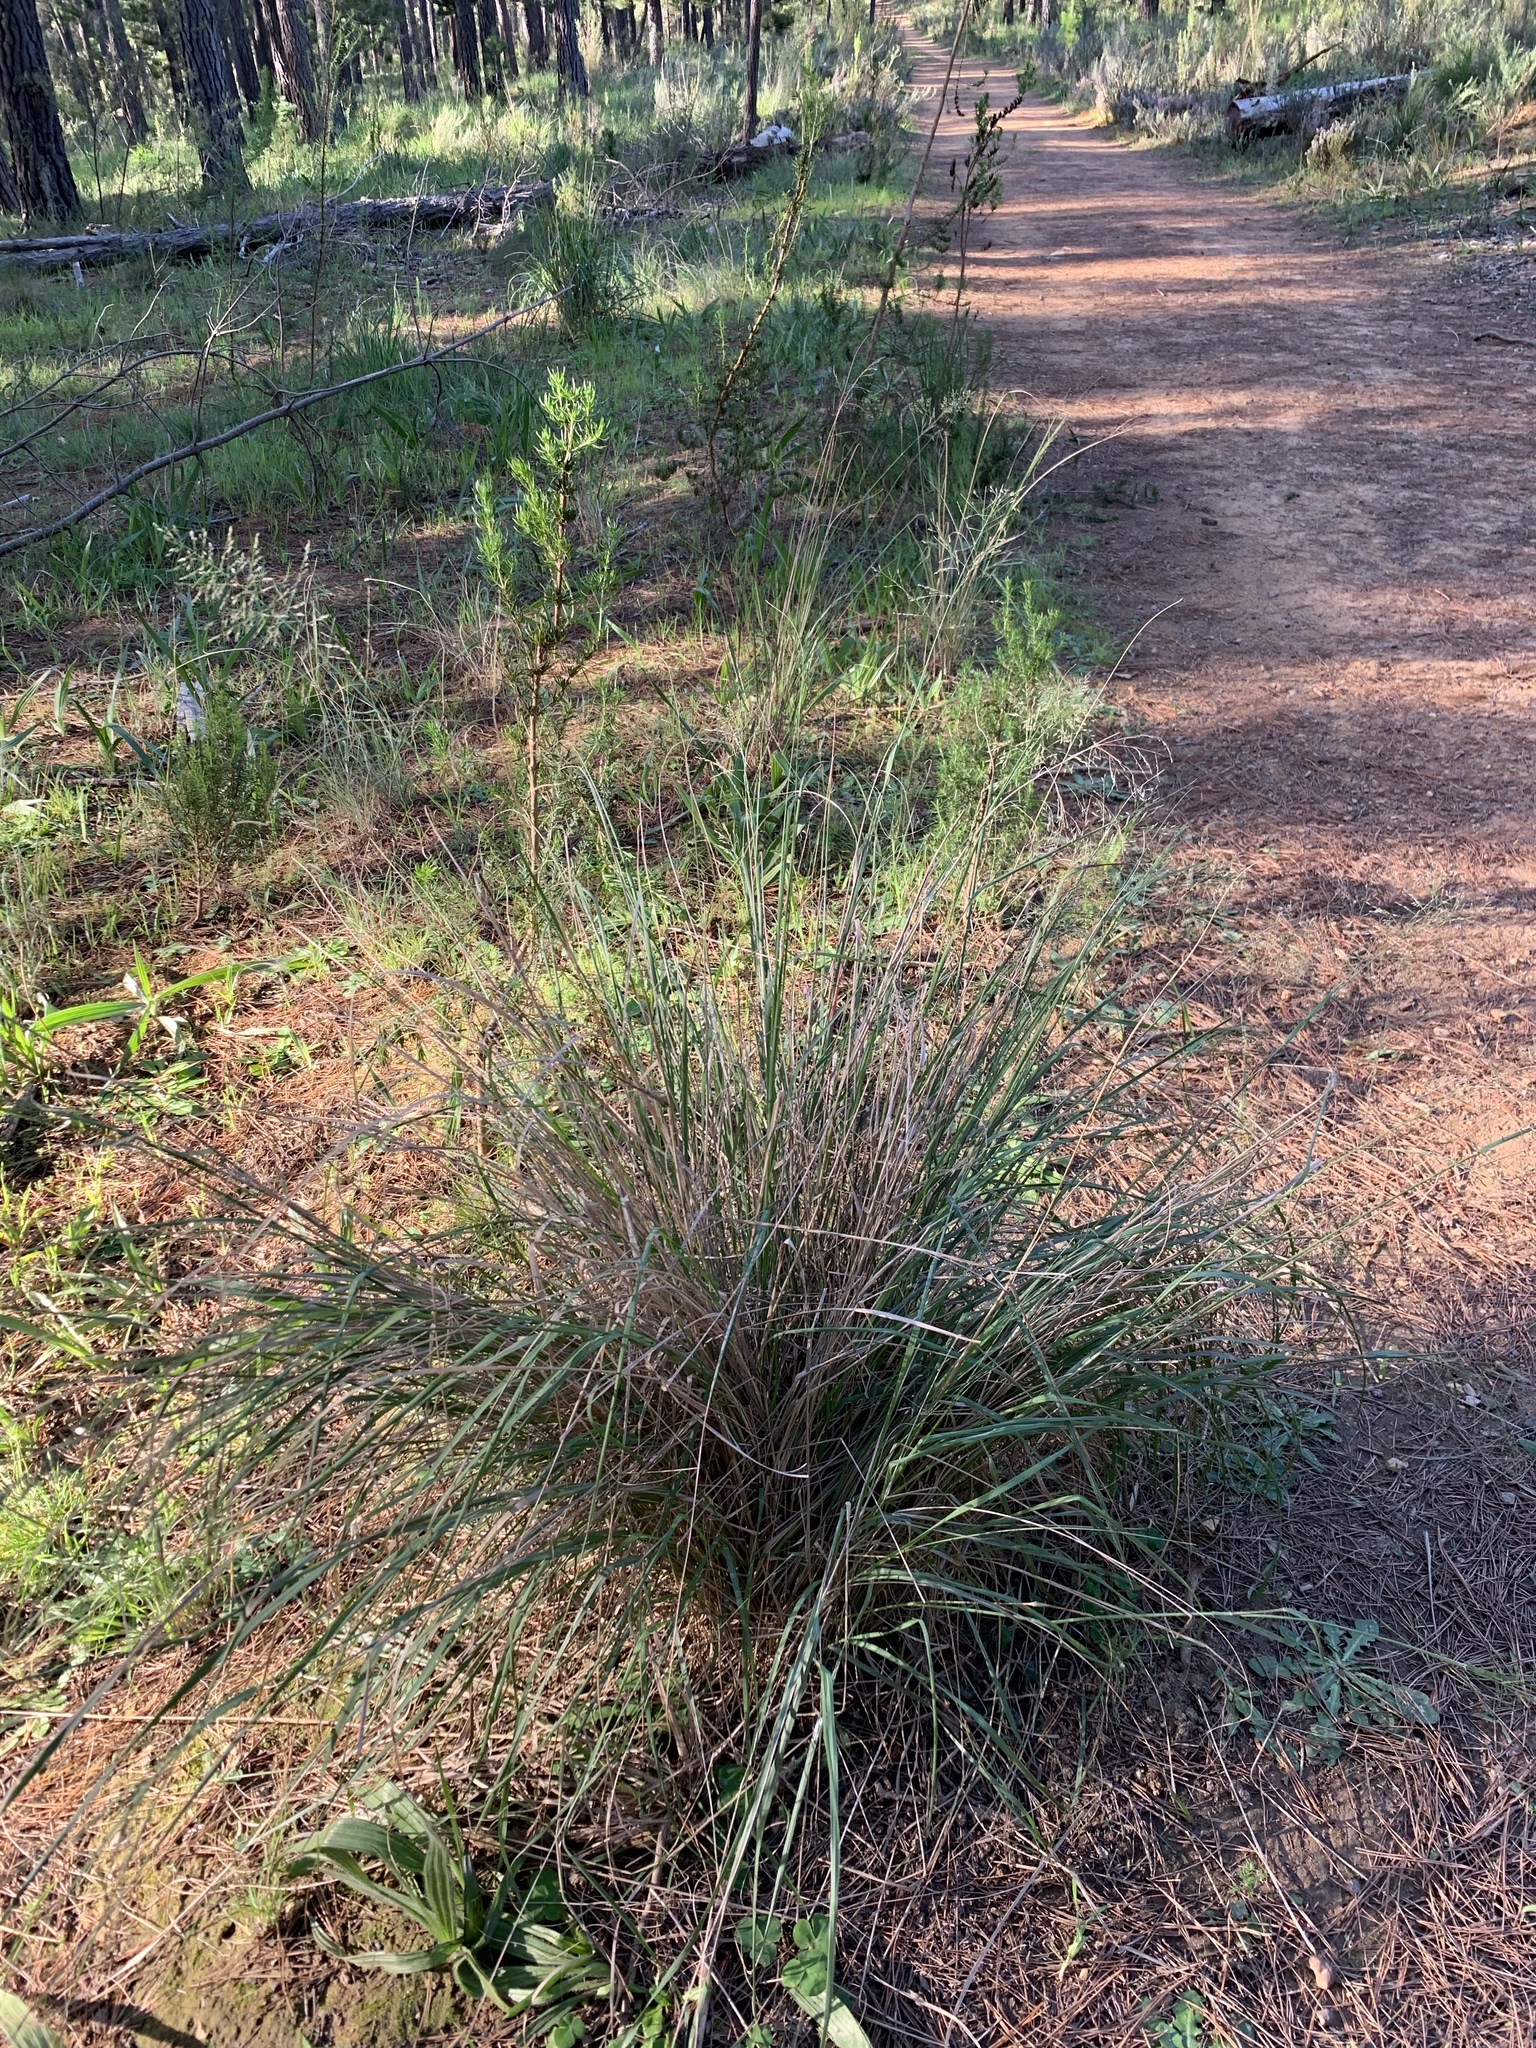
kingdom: Plantae
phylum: Tracheophyta
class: Liliopsida
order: Poales
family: Poaceae
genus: Eragrostis
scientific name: Eragrostis curvula
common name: African love-grass
